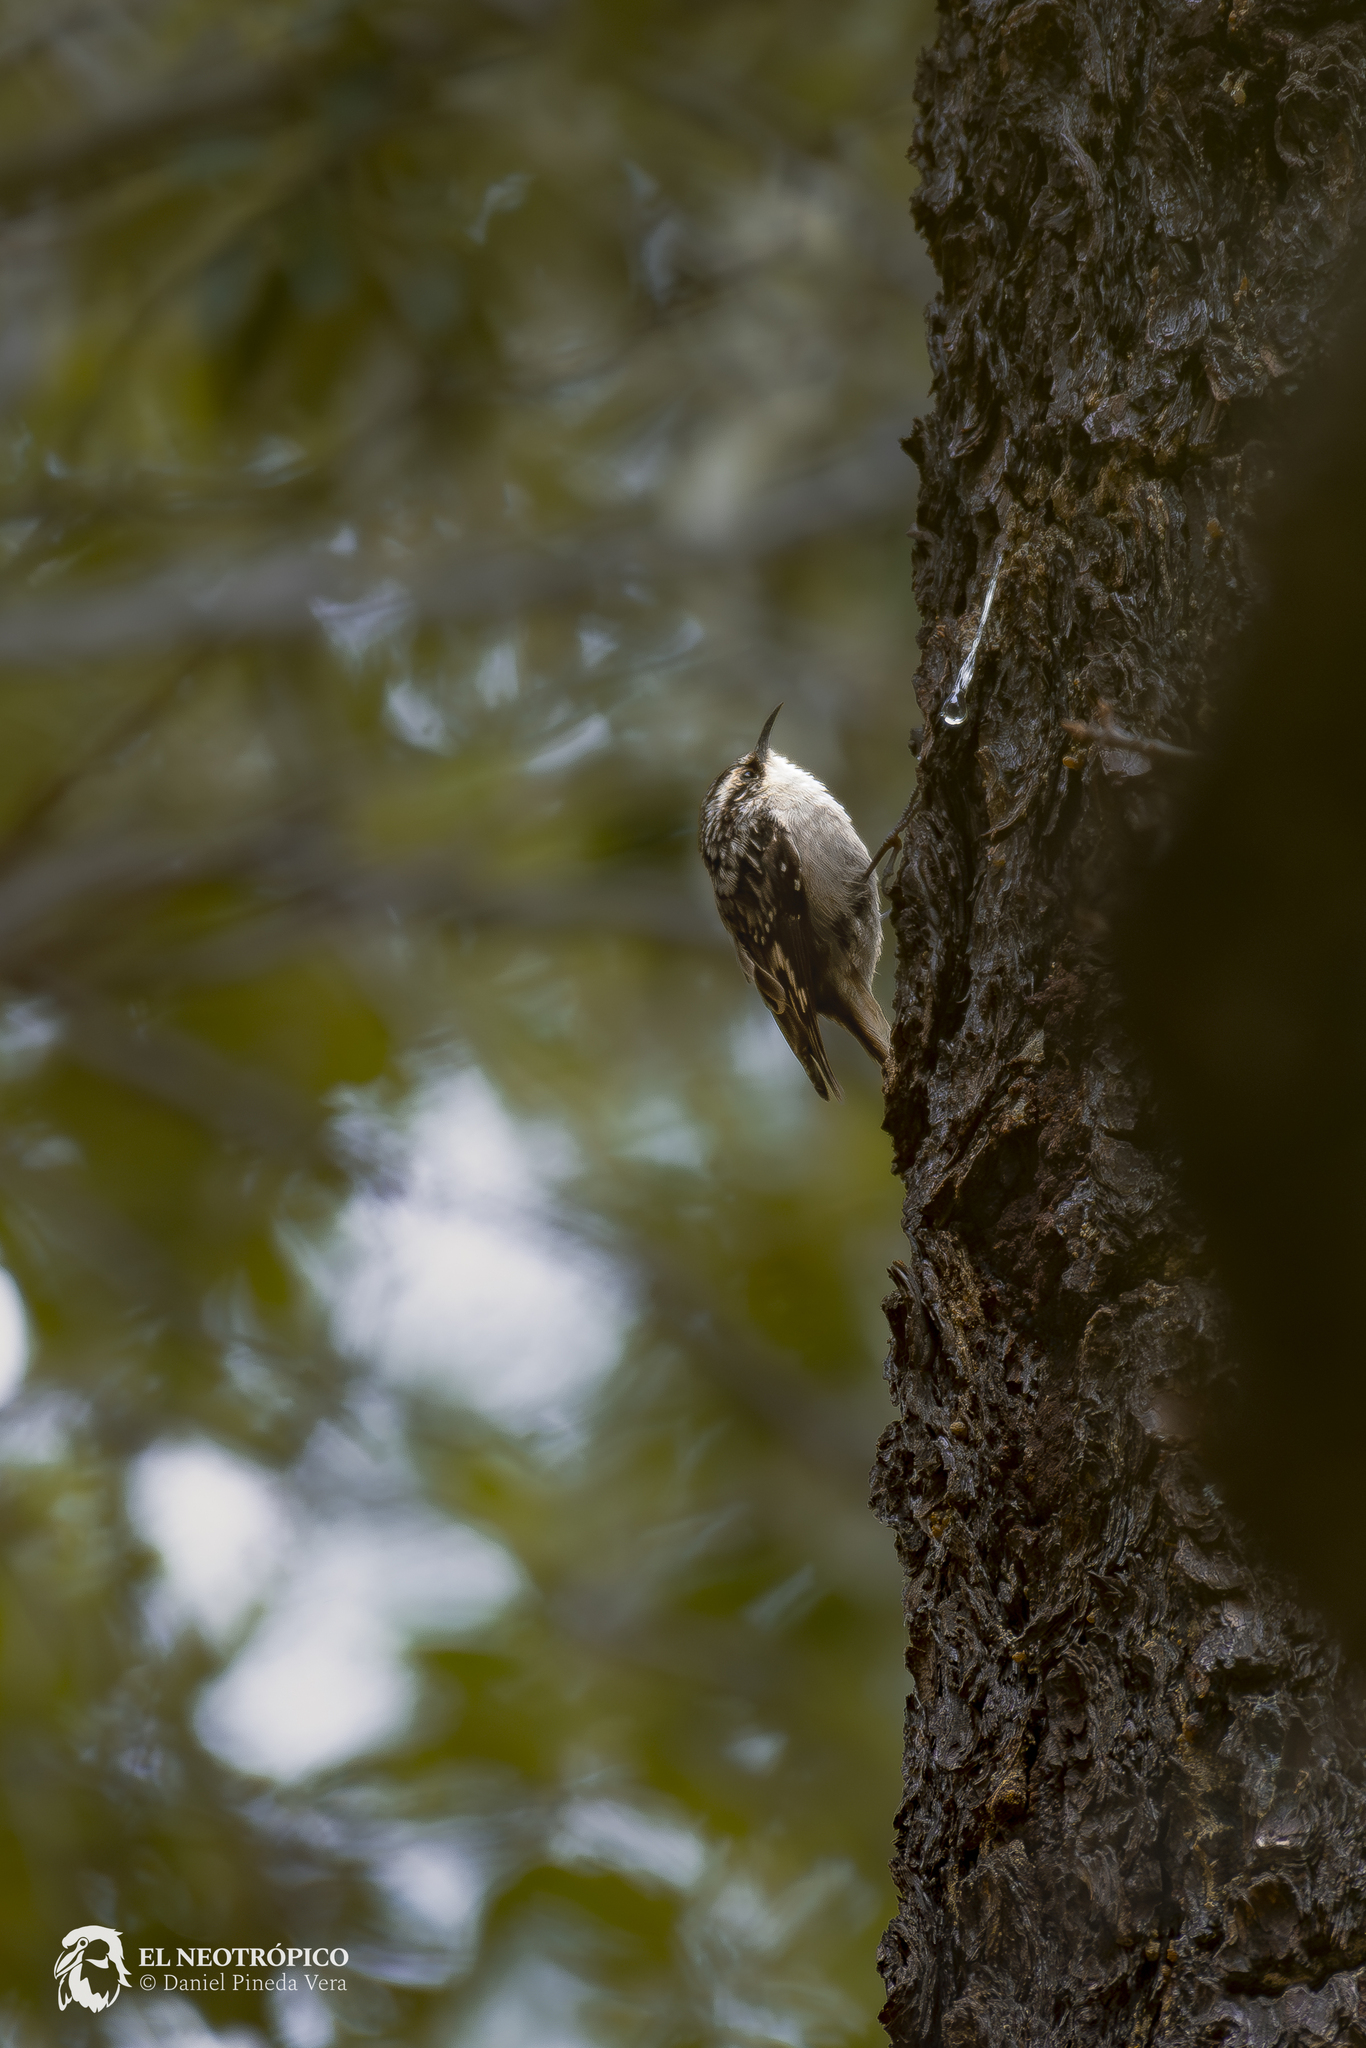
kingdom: Animalia
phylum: Chordata
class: Aves
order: Passeriformes
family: Certhiidae
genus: Certhia
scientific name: Certhia americana
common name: Brown creeper
